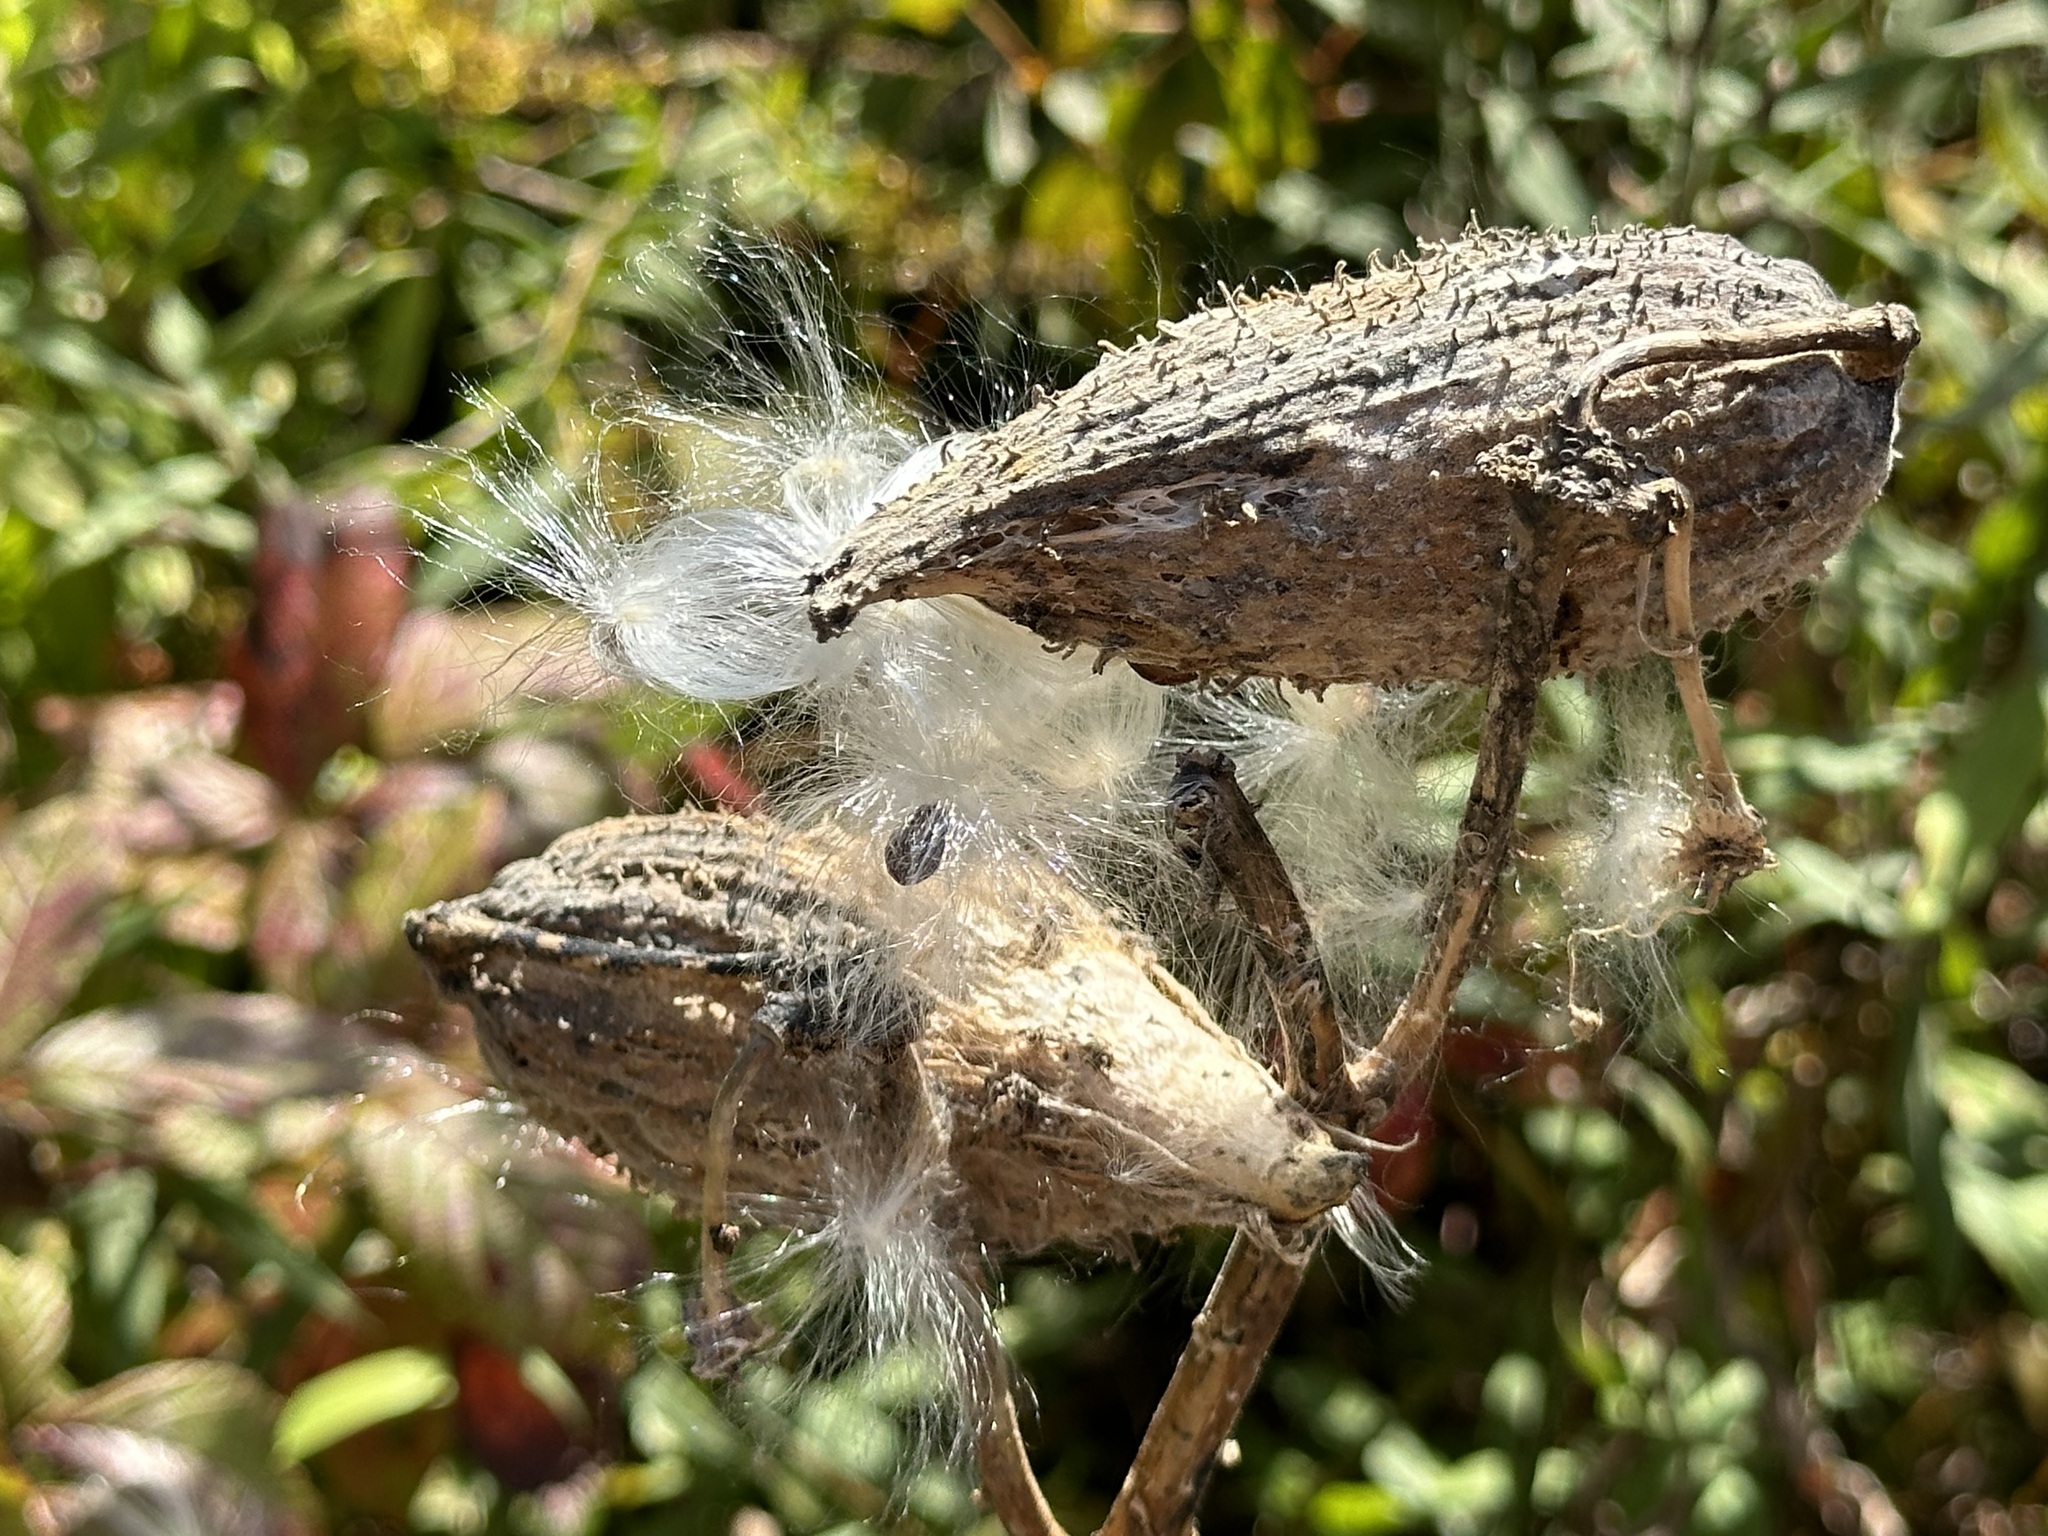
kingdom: Plantae
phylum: Tracheophyta
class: Magnoliopsida
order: Gentianales
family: Apocynaceae
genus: Asclepias
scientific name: Asclepias syriaca
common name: Common milkweed
